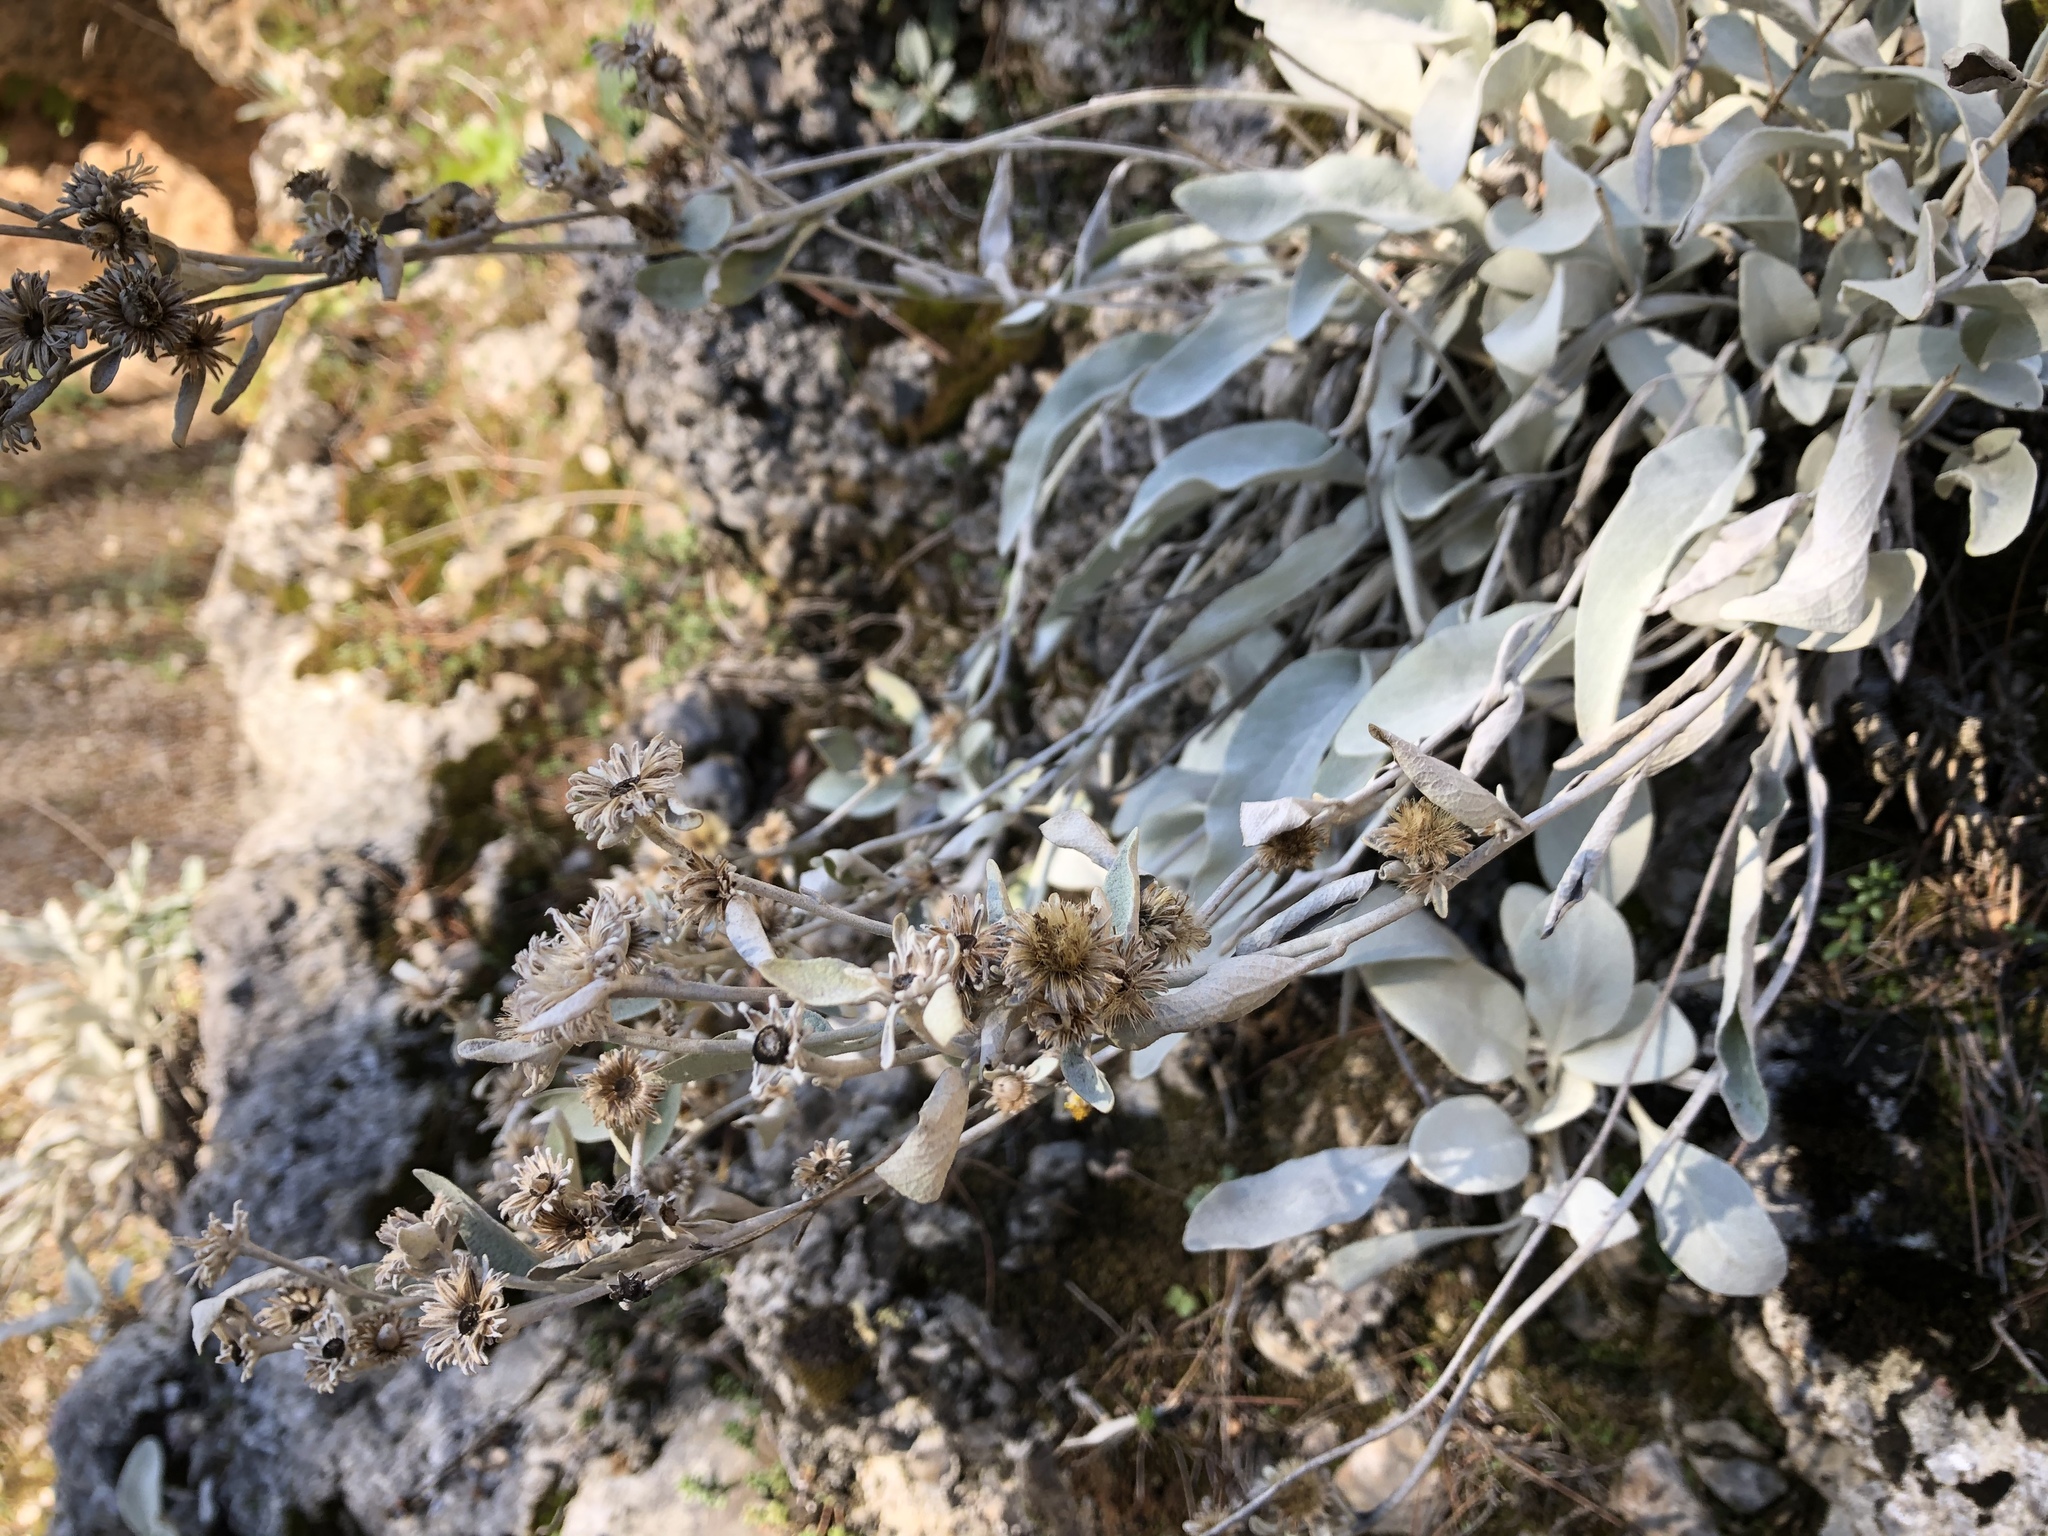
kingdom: Plantae
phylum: Tracheophyta
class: Magnoliopsida
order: Asterales
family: Asteraceae
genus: Pentanema
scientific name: Pentanema verbascifolium
